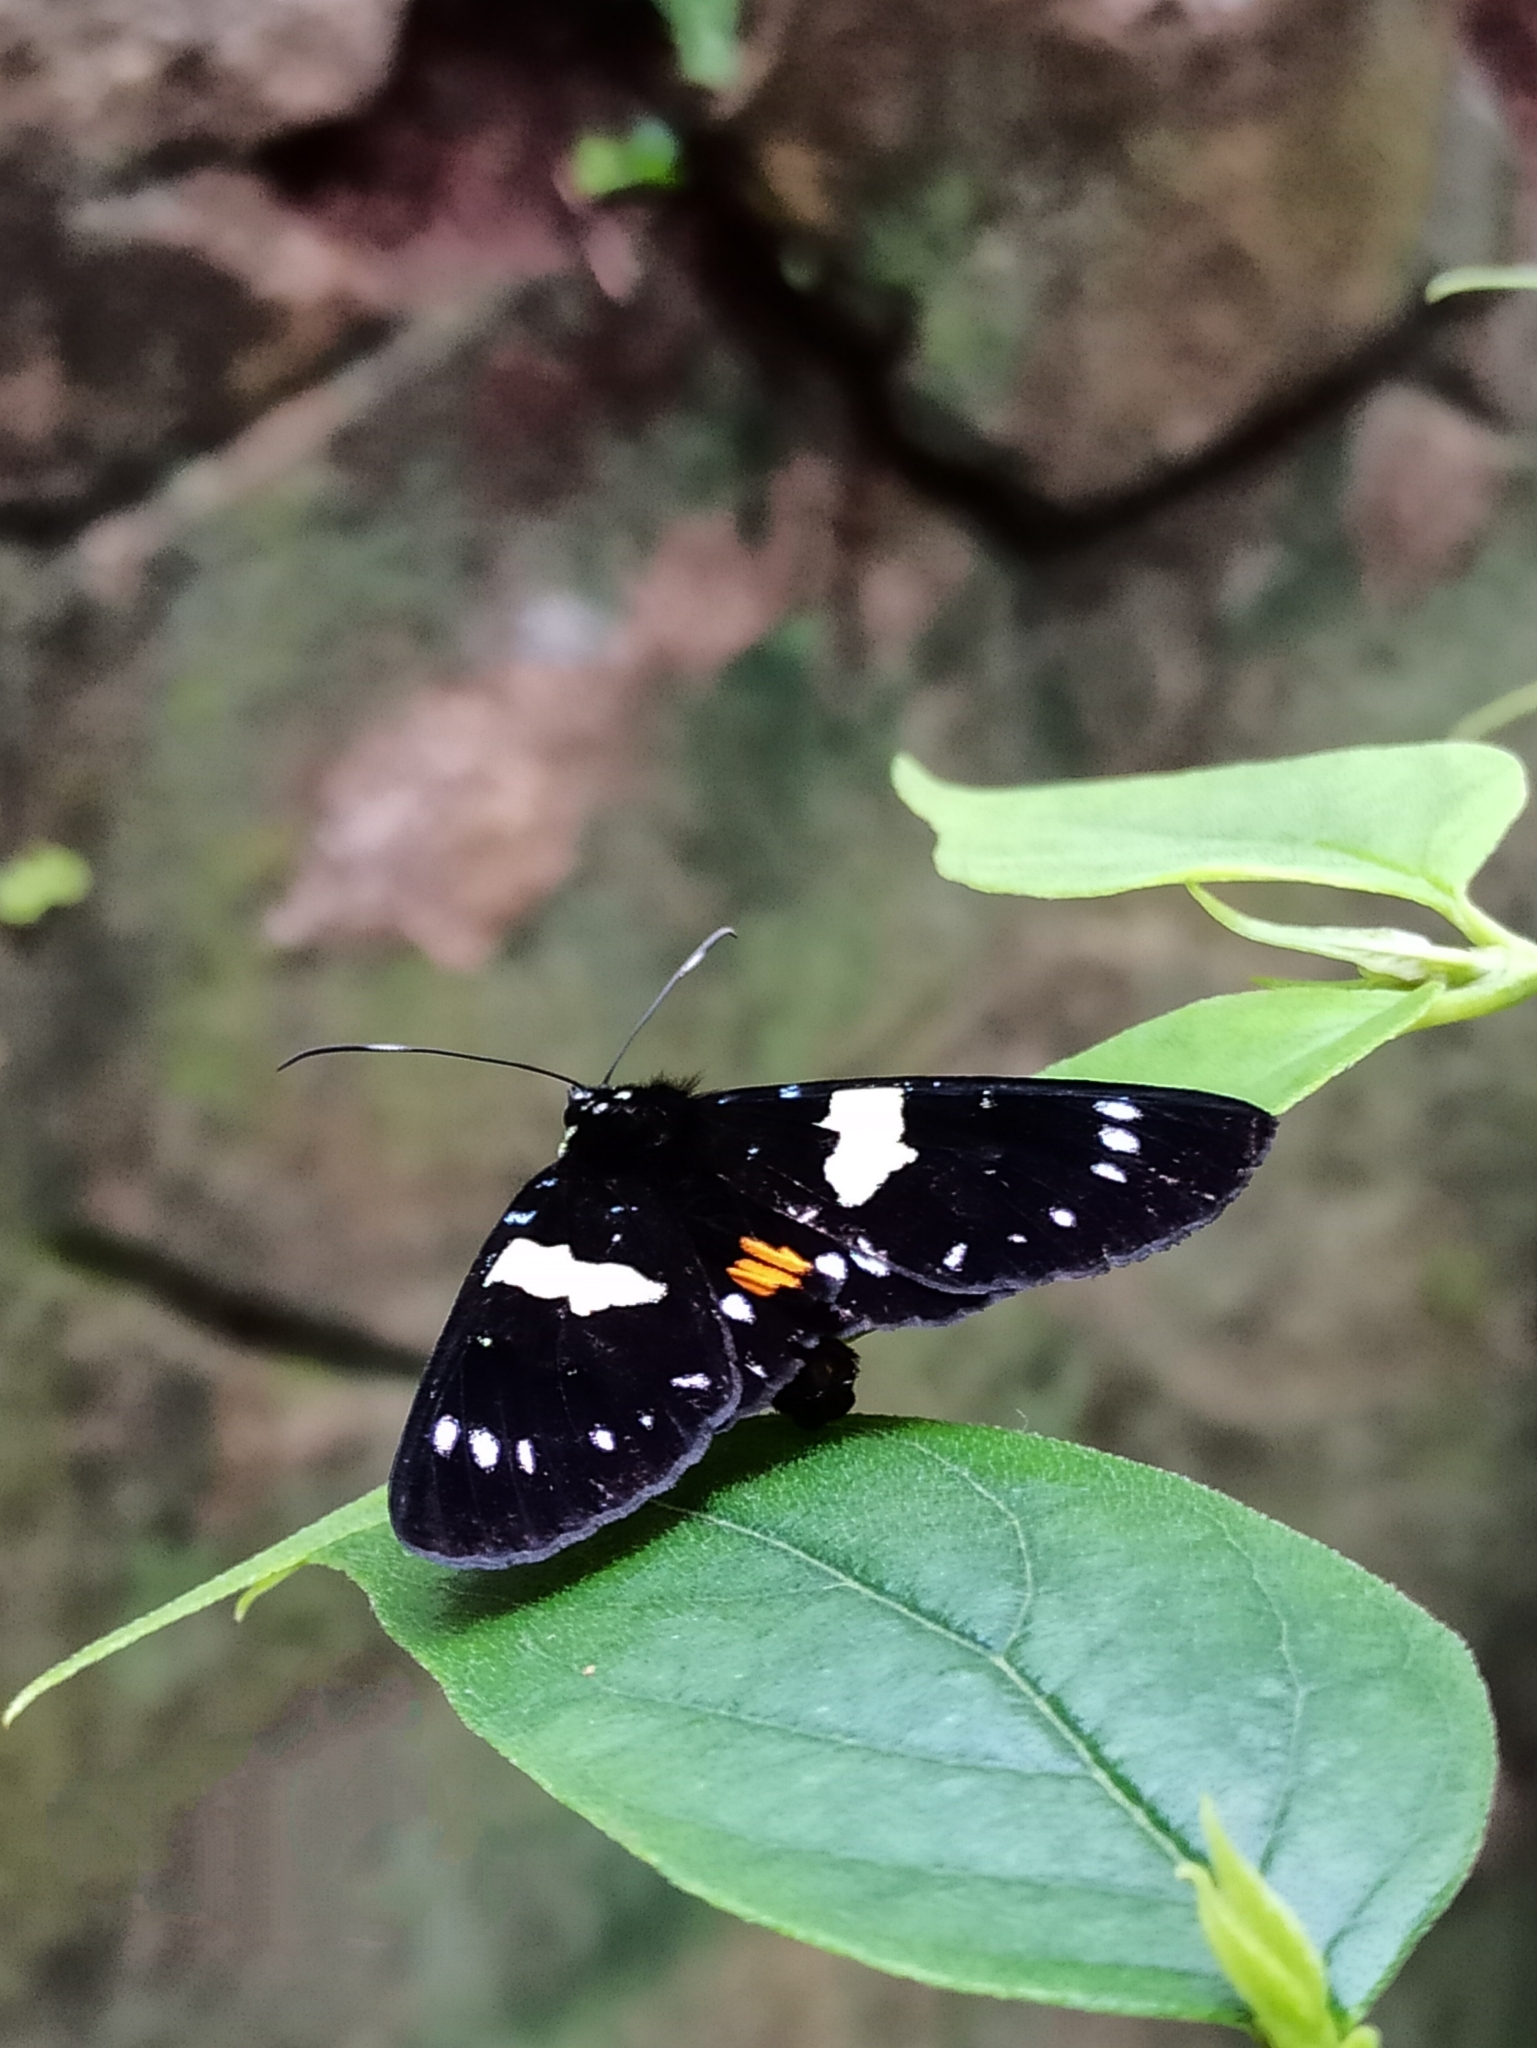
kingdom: Animalia
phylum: Arthropoda
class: Insecta
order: Lepidoptera
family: Noctuidae
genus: Episteme
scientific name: Episteme adulatrix
